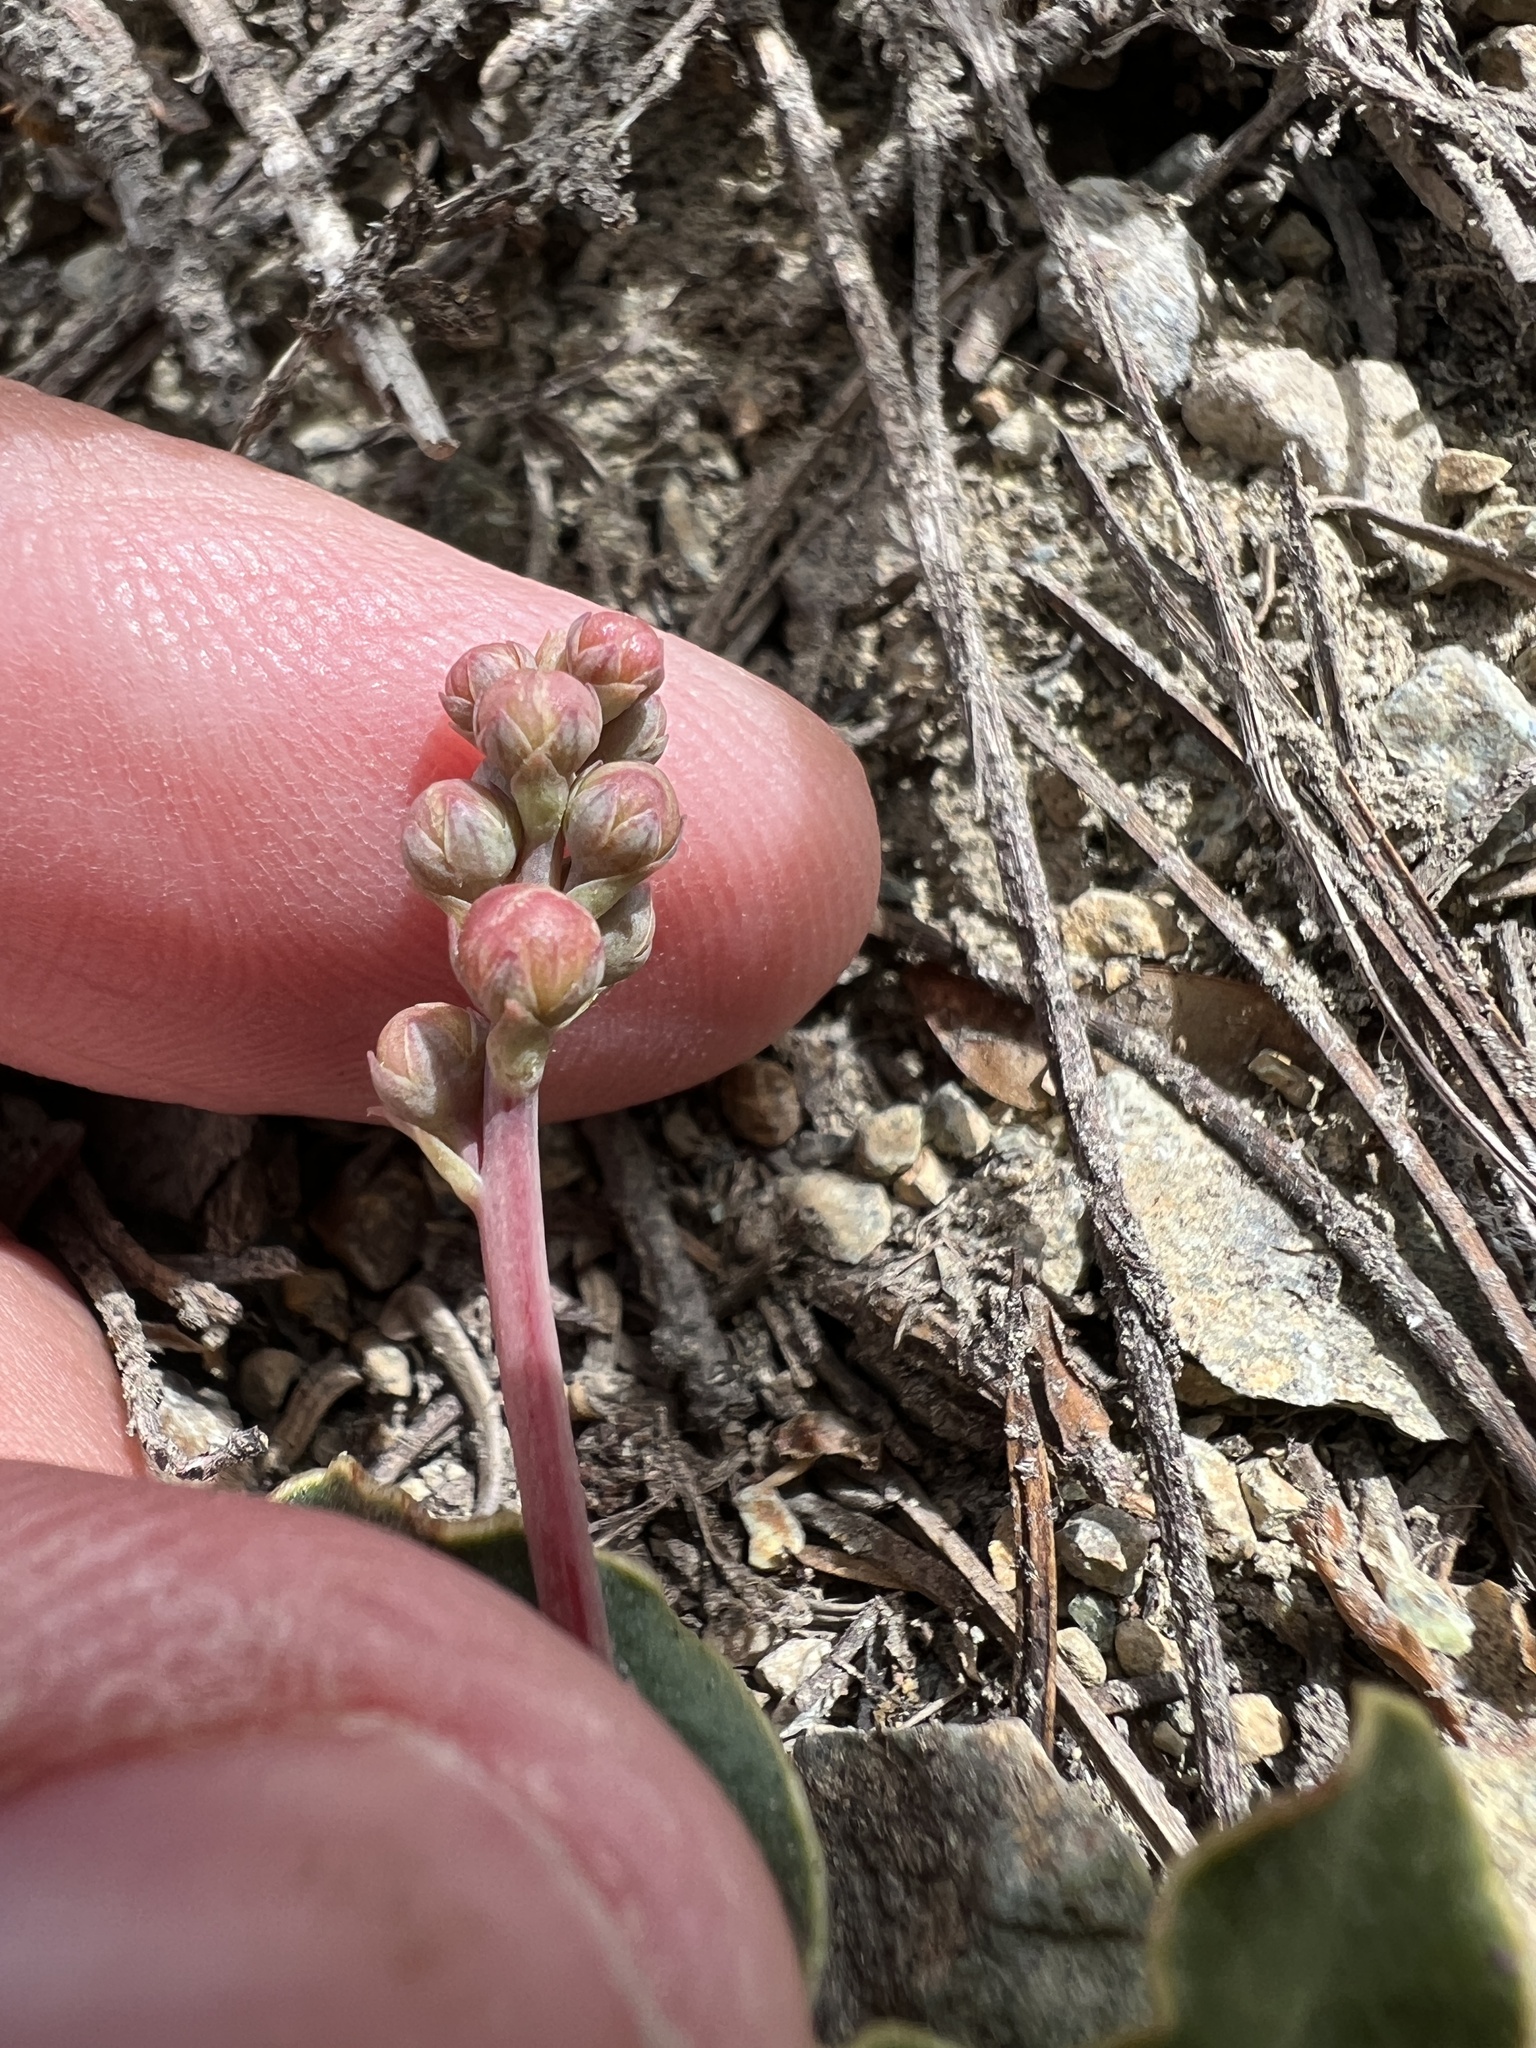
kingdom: Plantae
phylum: Tracheophyta
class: Magnoliopsida
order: Ericales
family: Ericaceae
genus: Pyrola
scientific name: Pyrola dentata
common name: Tooth-leaved wintergreen
